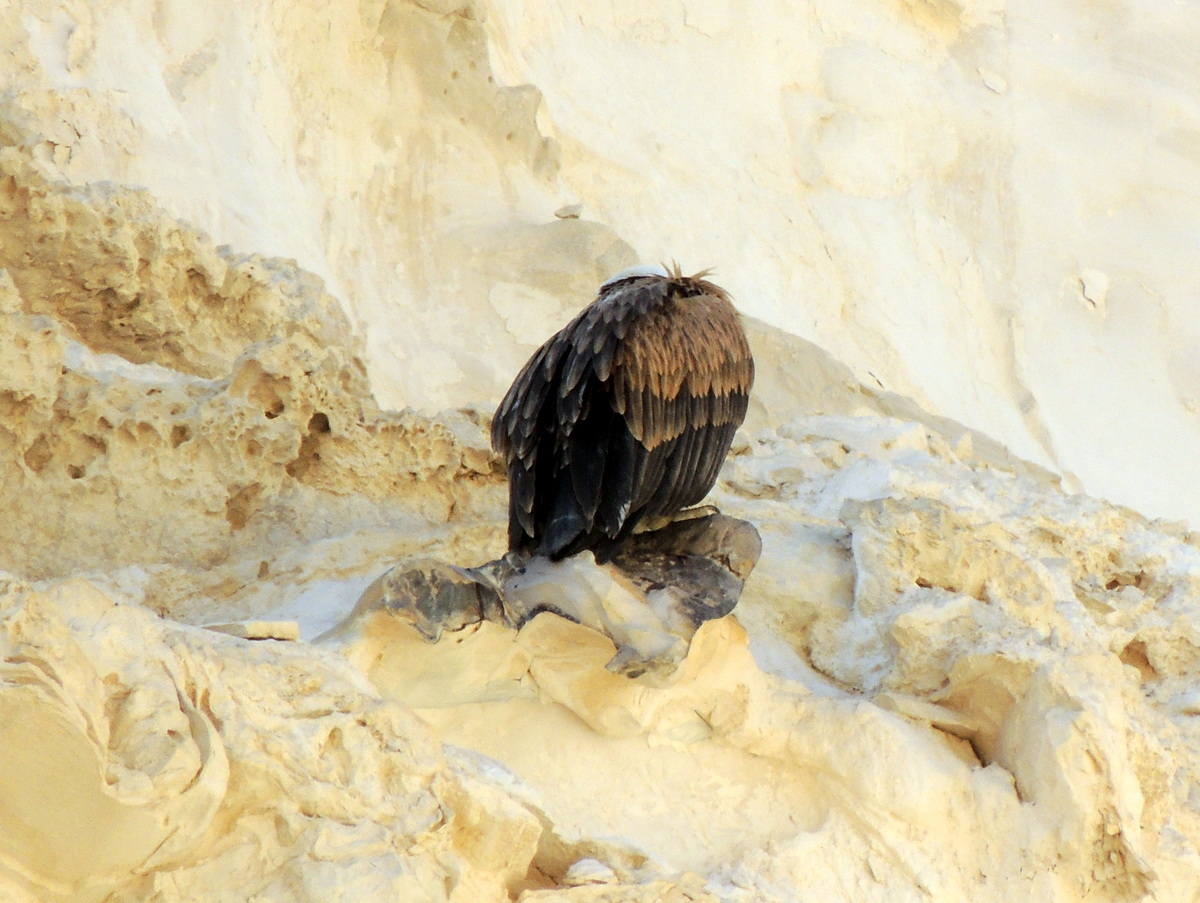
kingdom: Animalia
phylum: Chordata
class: Aves
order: Accipitriformes
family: Accipitridae
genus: Gyps
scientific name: Gyps fulvus
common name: Griffon vulture
